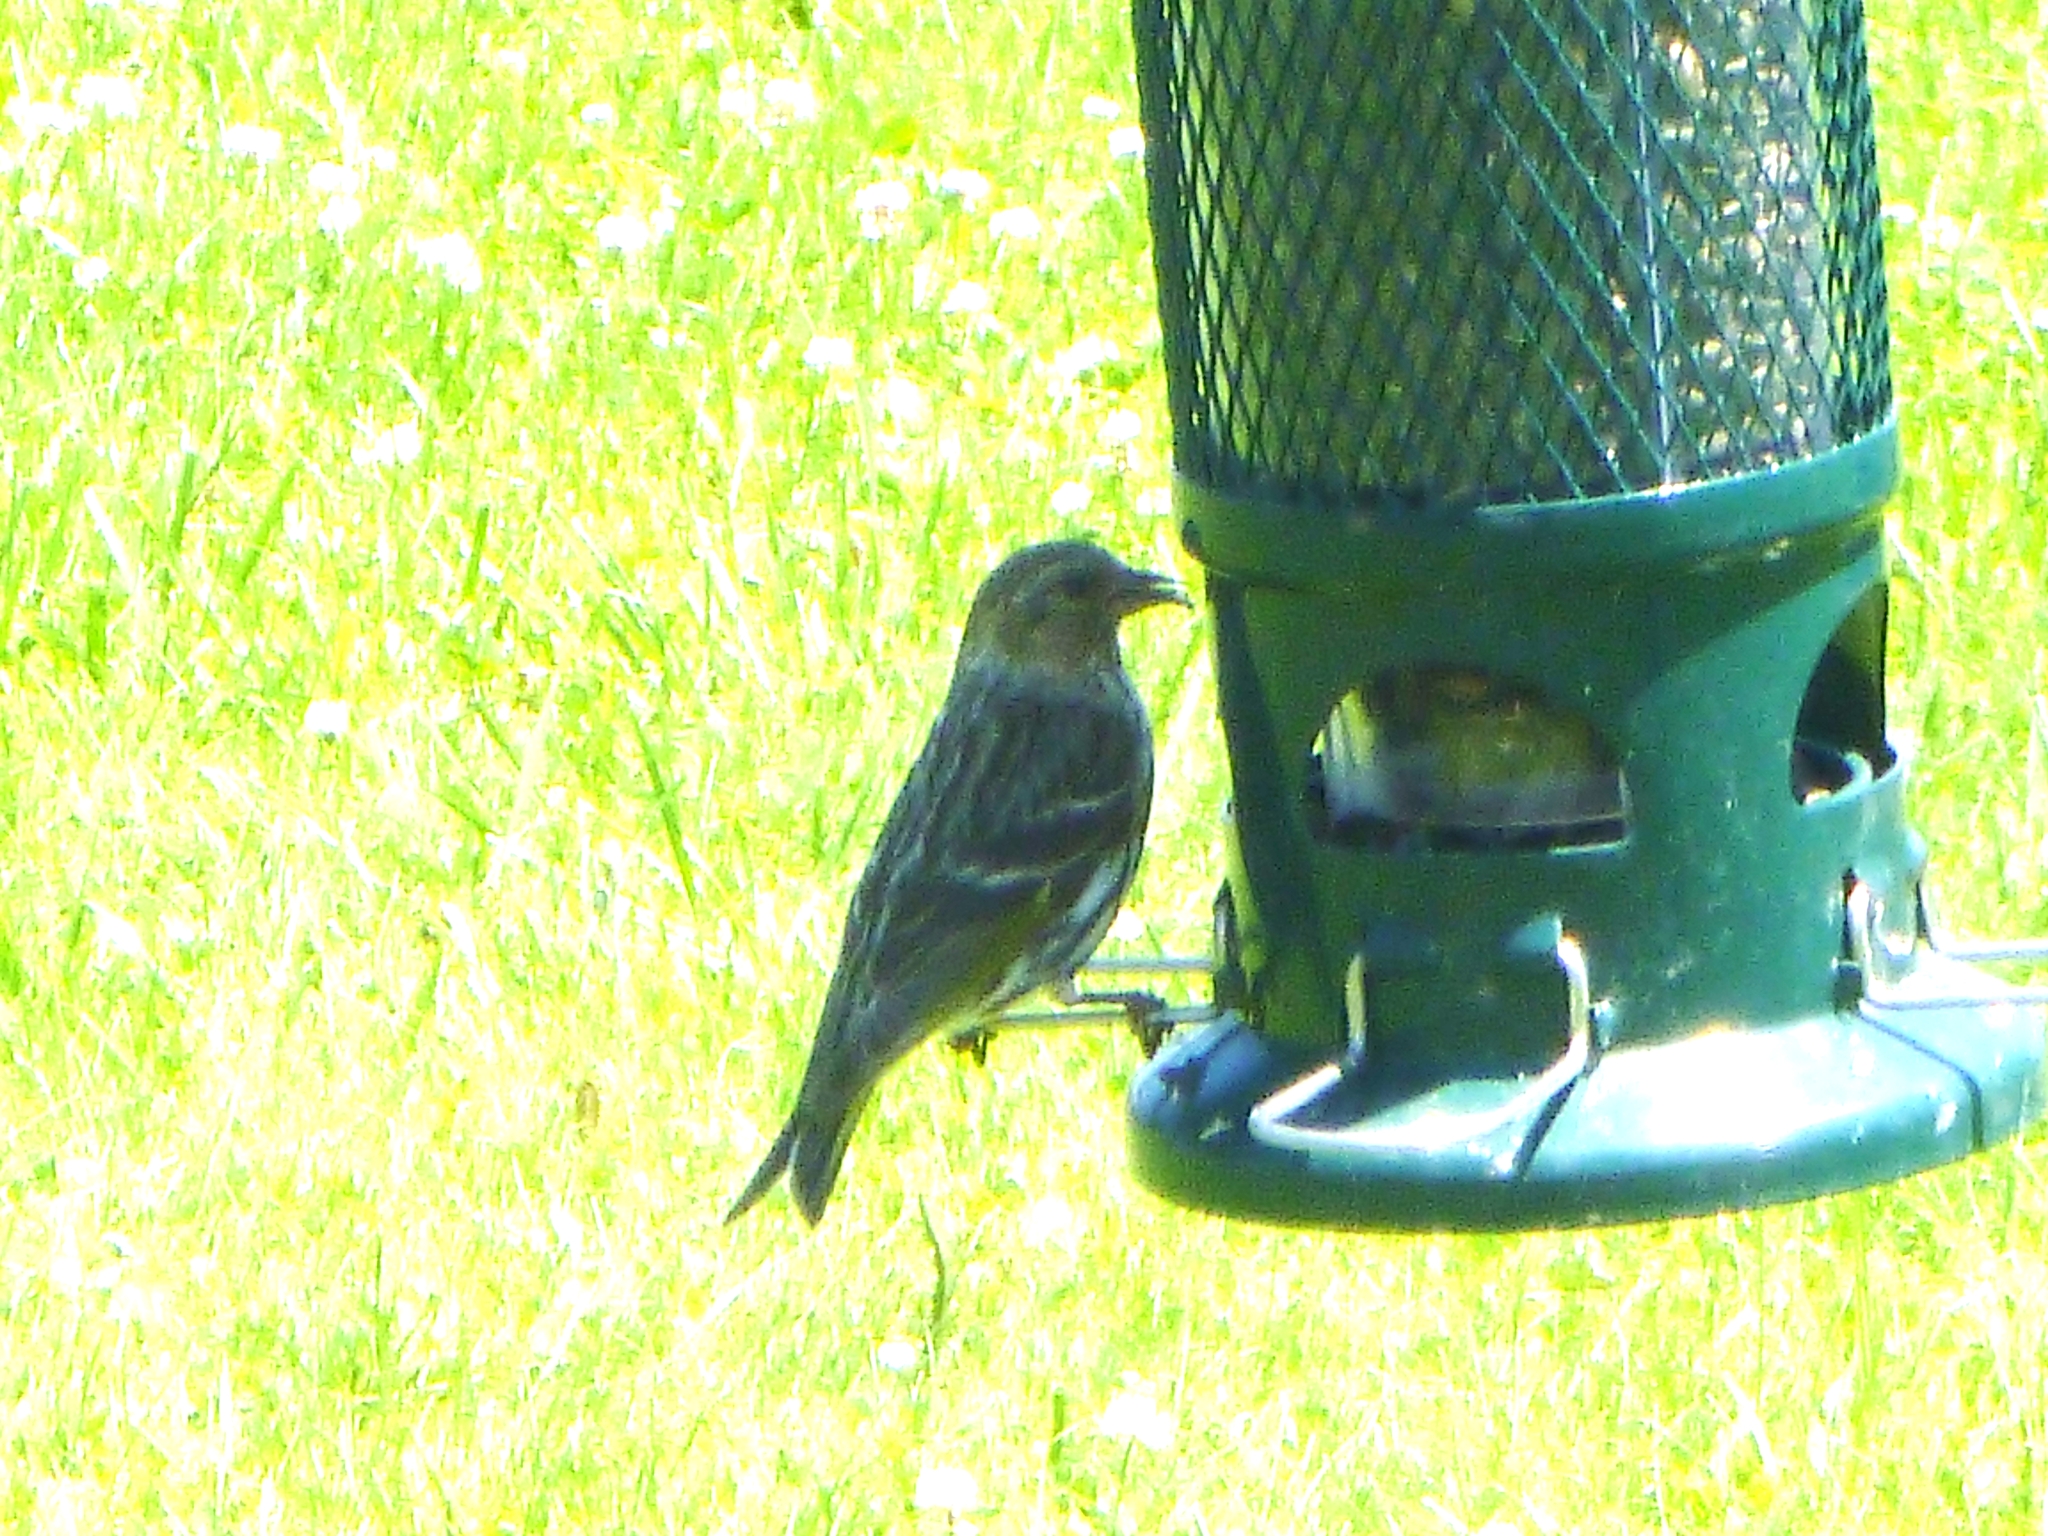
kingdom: Animalia
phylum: Chordata
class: Aves
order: Passeriformes
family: Fringillidae
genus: Spinus
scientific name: Spinus pinus
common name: Pine siskin
